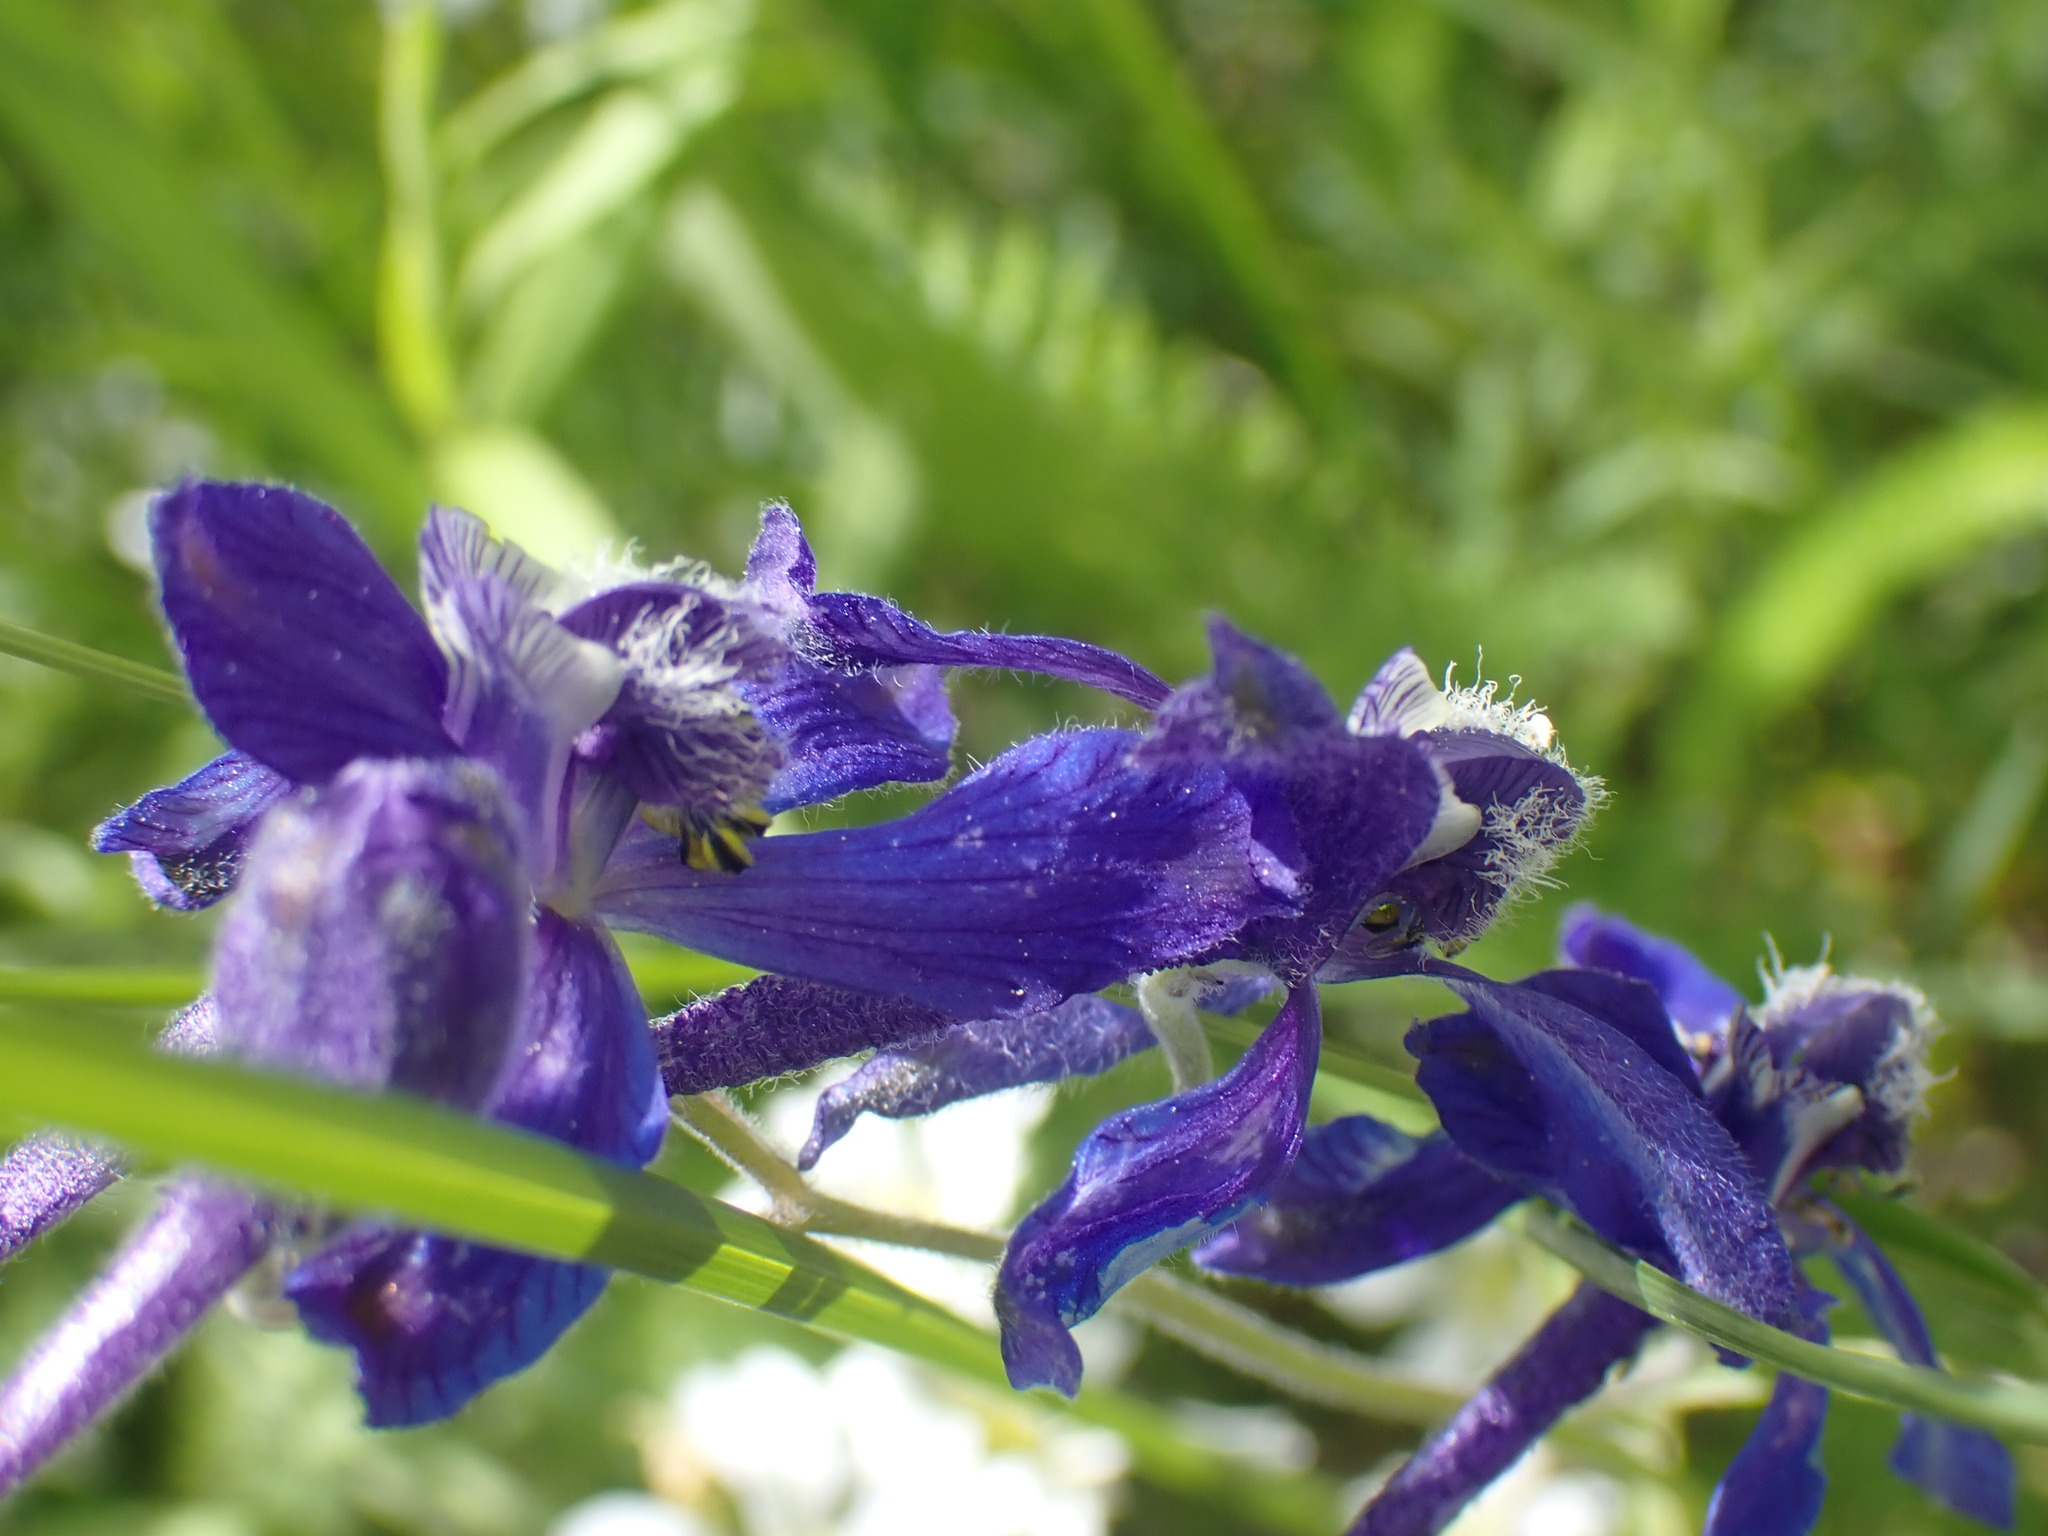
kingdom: Plantae
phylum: Tracheophyta
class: Magnoliopsida
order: Ranunculales
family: Ranunculaceae
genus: Delphinium
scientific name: Delphinium nuttallianum
